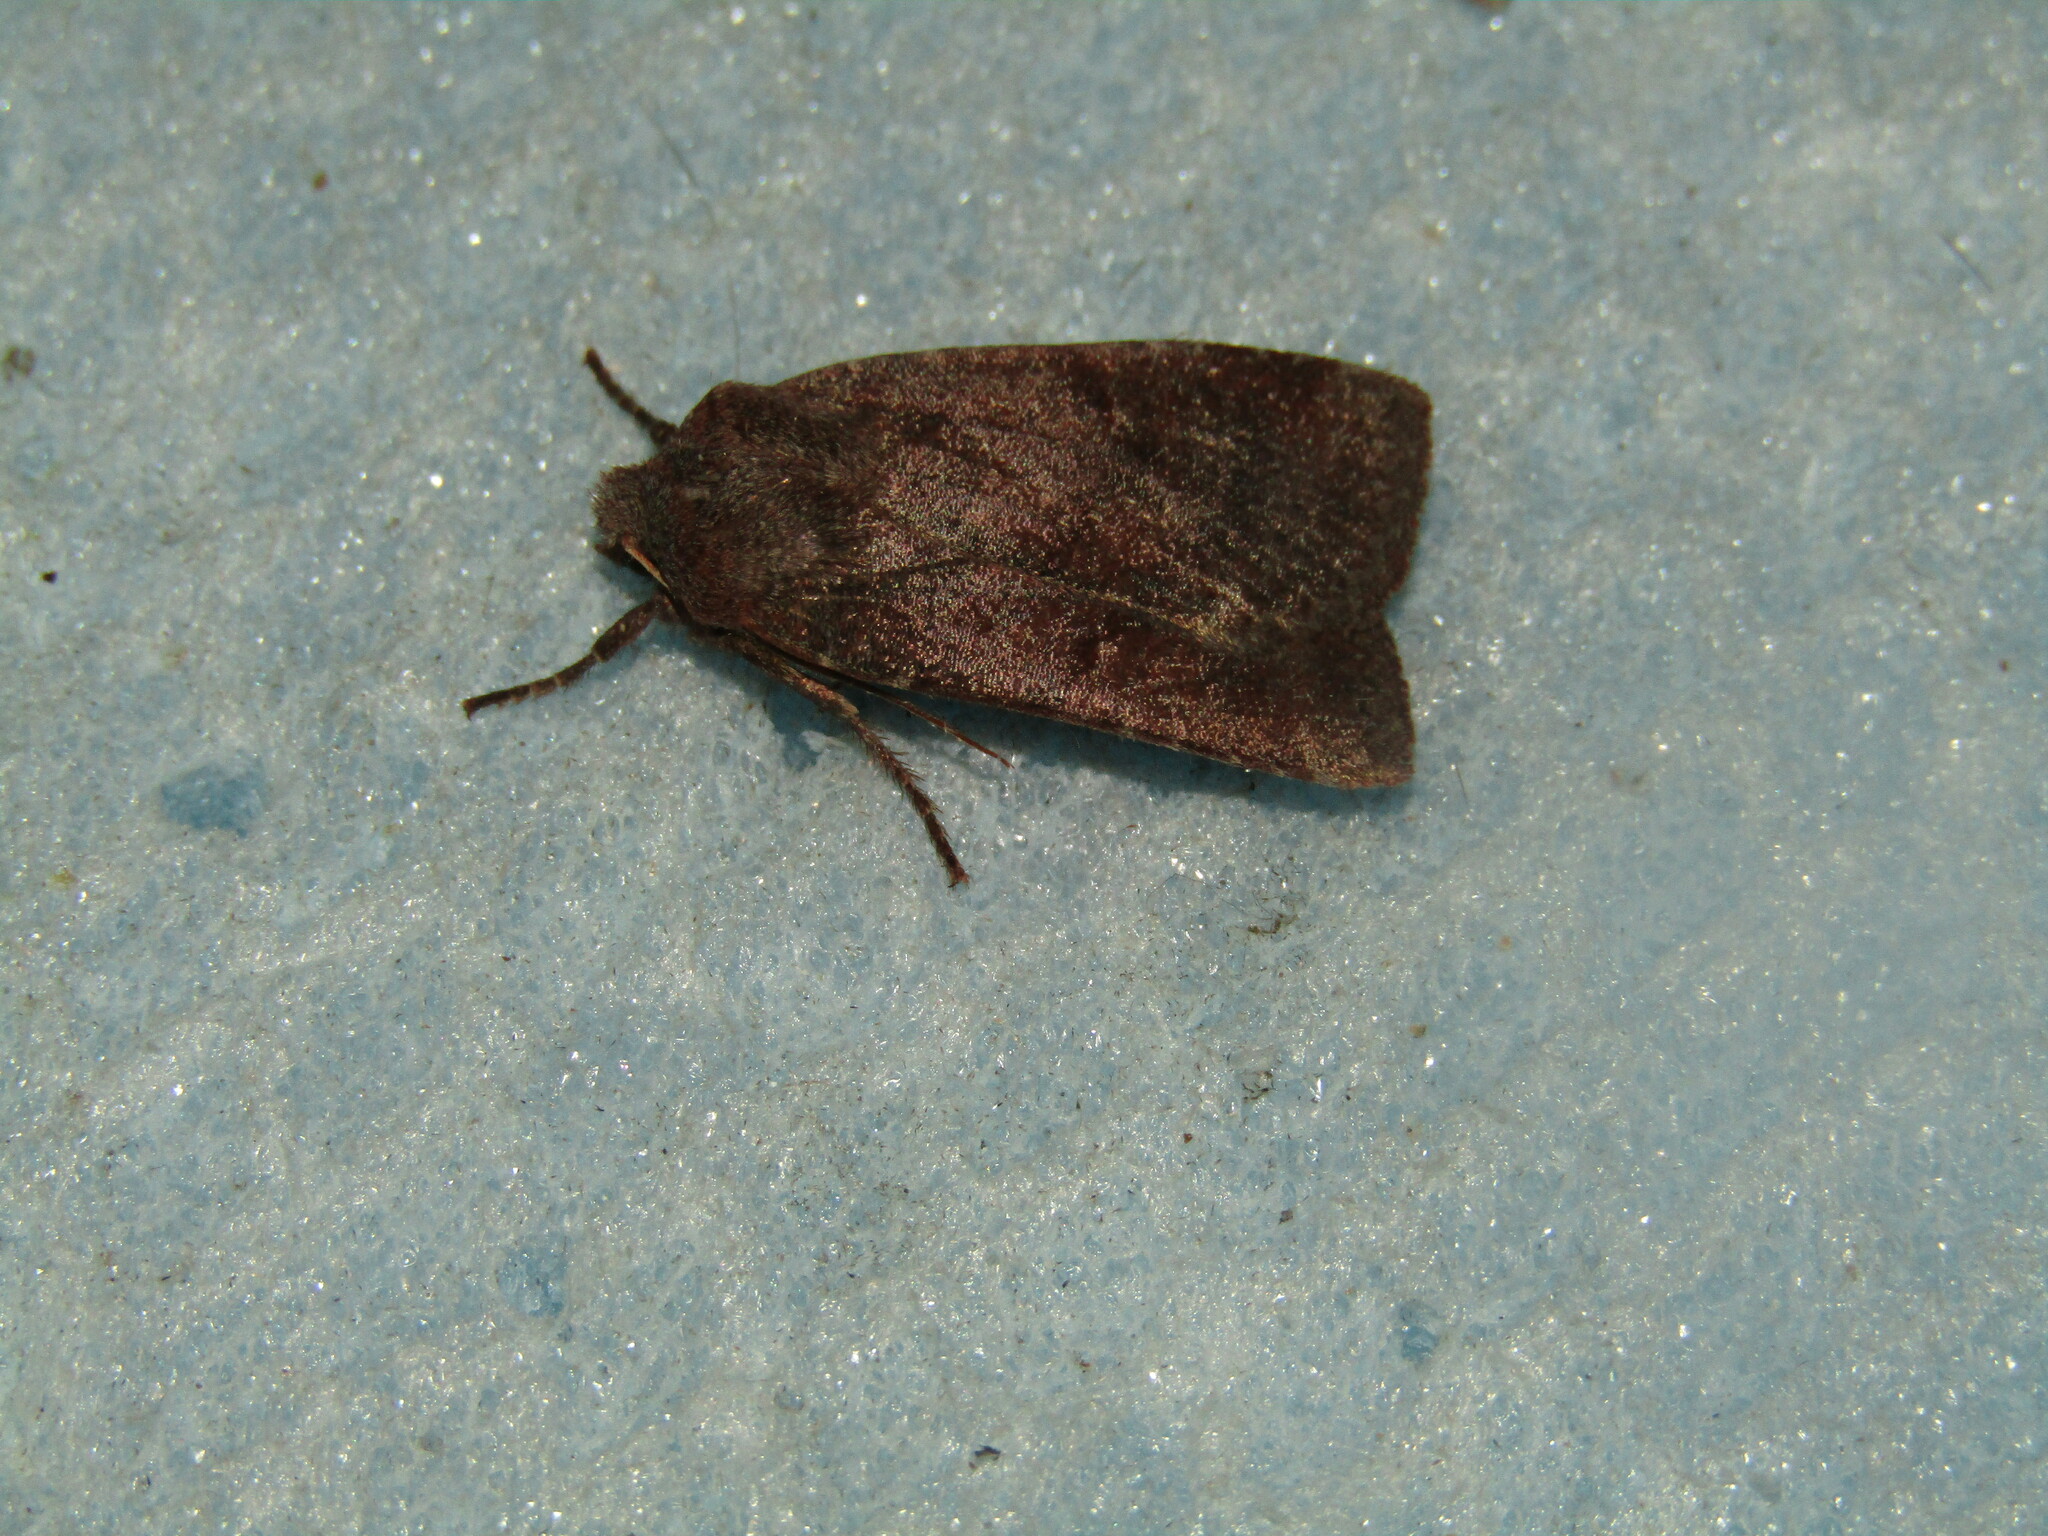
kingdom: Animalia
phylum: Arthropoda
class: Insecta
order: Lepidoptera
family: Noctuidae
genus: Conistra
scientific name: Conistra vaccinii
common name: Chestnut
